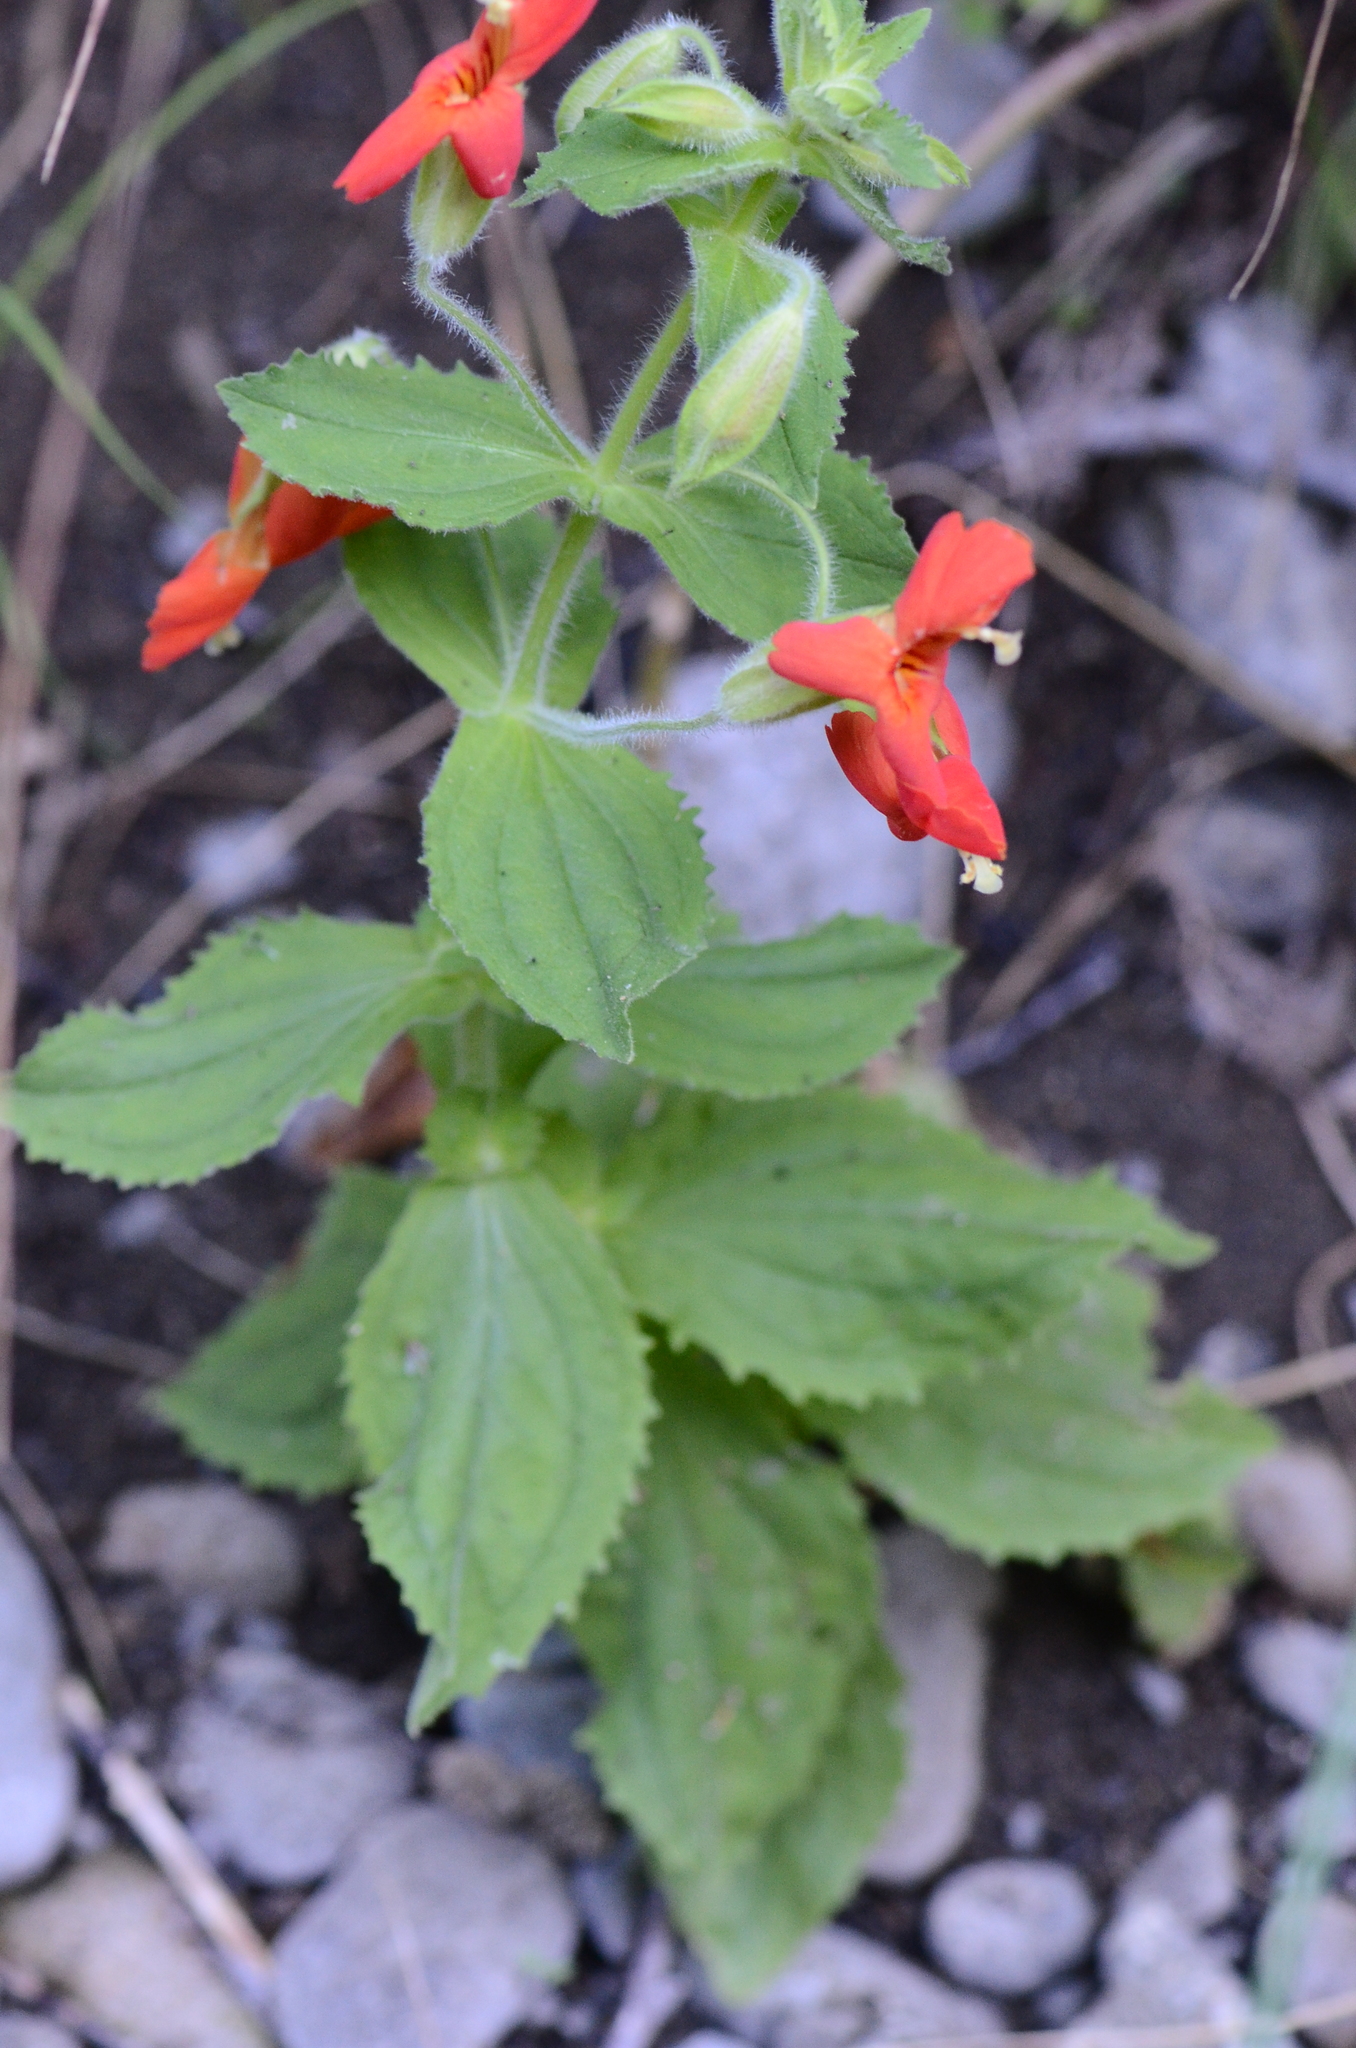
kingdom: Plantae
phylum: Tracheophyta
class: Magnoliopsida
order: Lamiales
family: Phrymaceae
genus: Erythranthe
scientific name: Erythranthe cardinalis
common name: Scarlet monkey-flower
